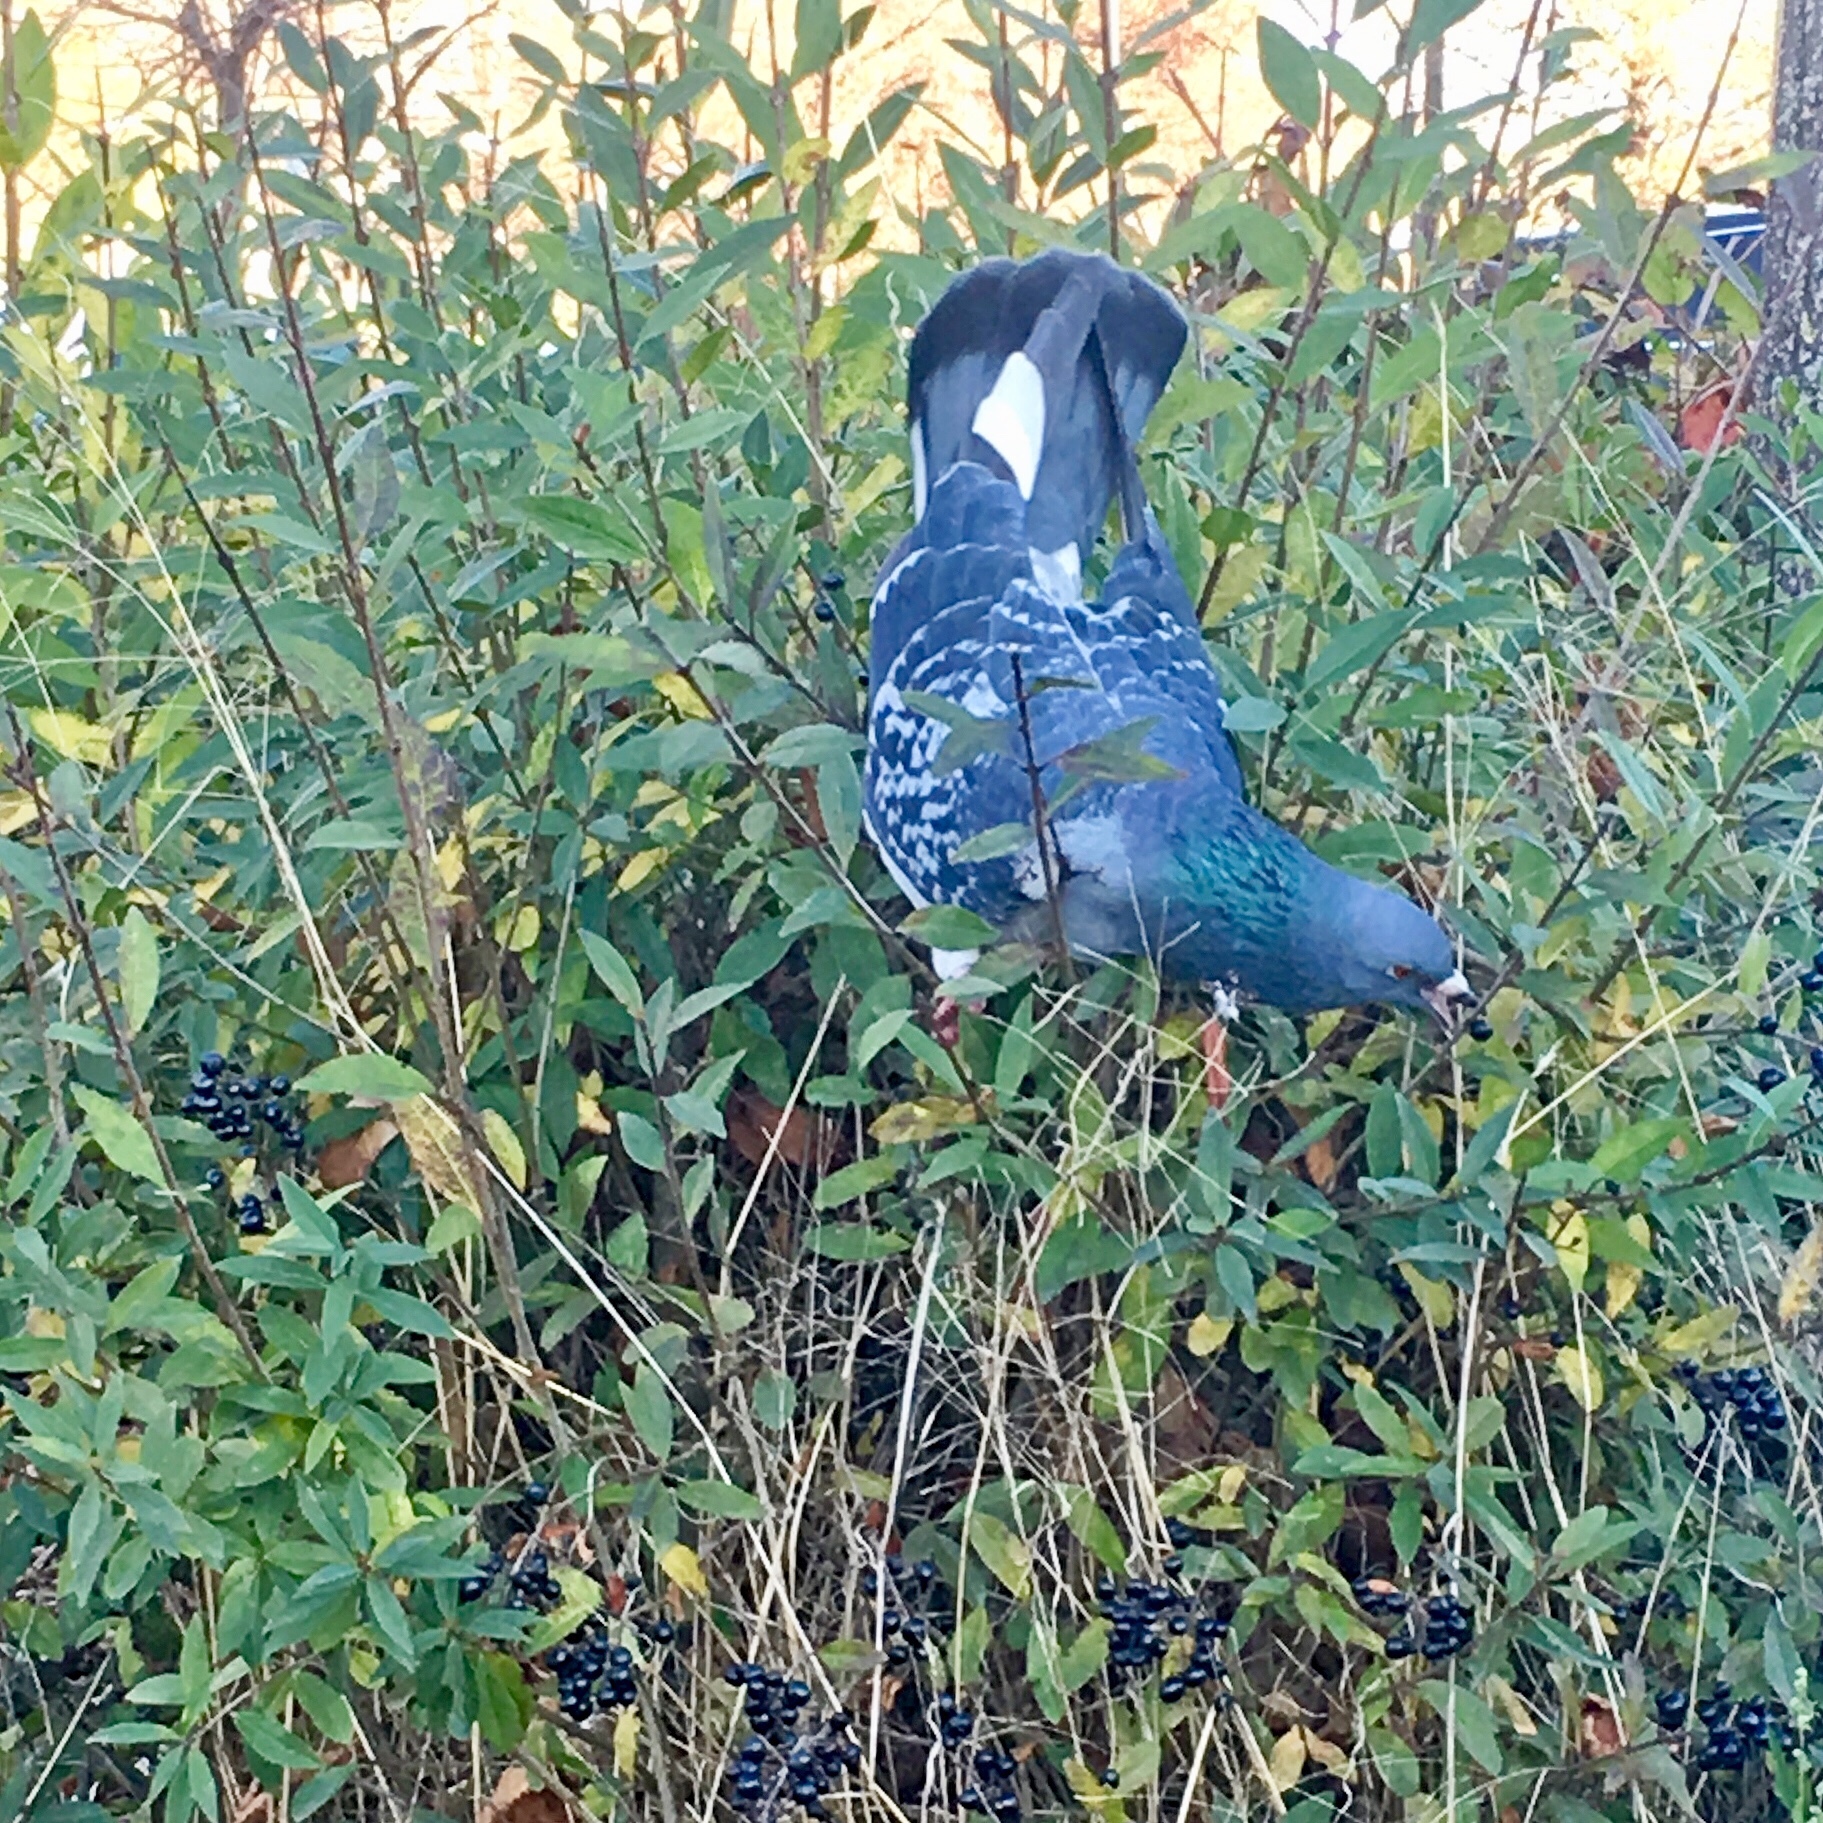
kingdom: Animalia
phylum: Chordata
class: Aves
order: Columbiformes
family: Columbidae
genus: Columba
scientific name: Columba livia
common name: Rock pigeon
